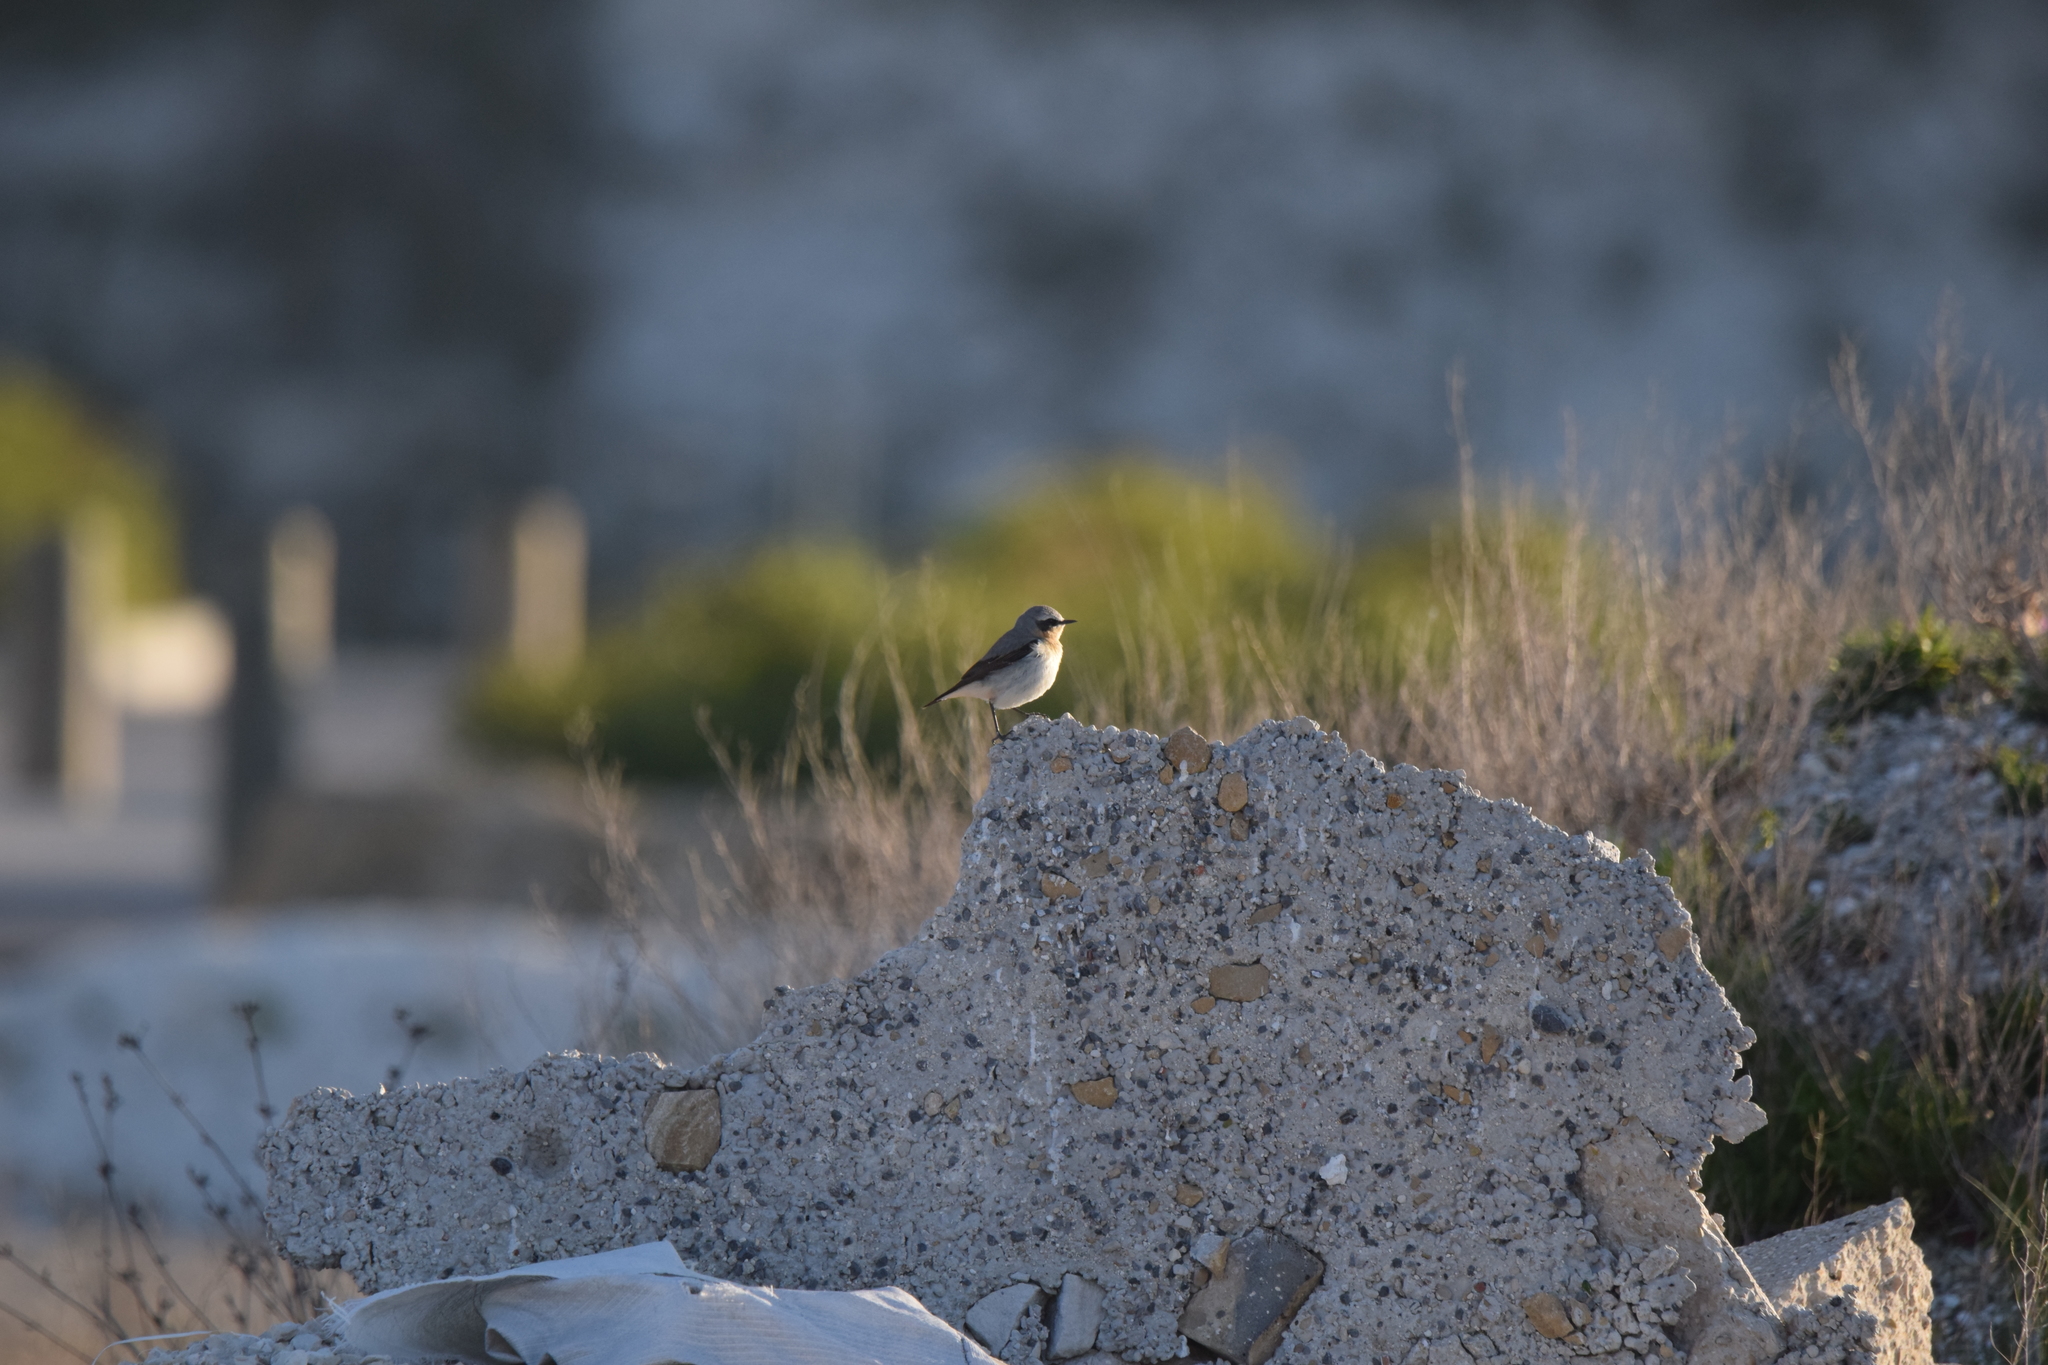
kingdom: Animalia
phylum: Chordata
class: Aves
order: Passeriformes
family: Muscicapidae
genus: Oenanthe
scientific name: Oenanthe oenanthe
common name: Northern wheatear
